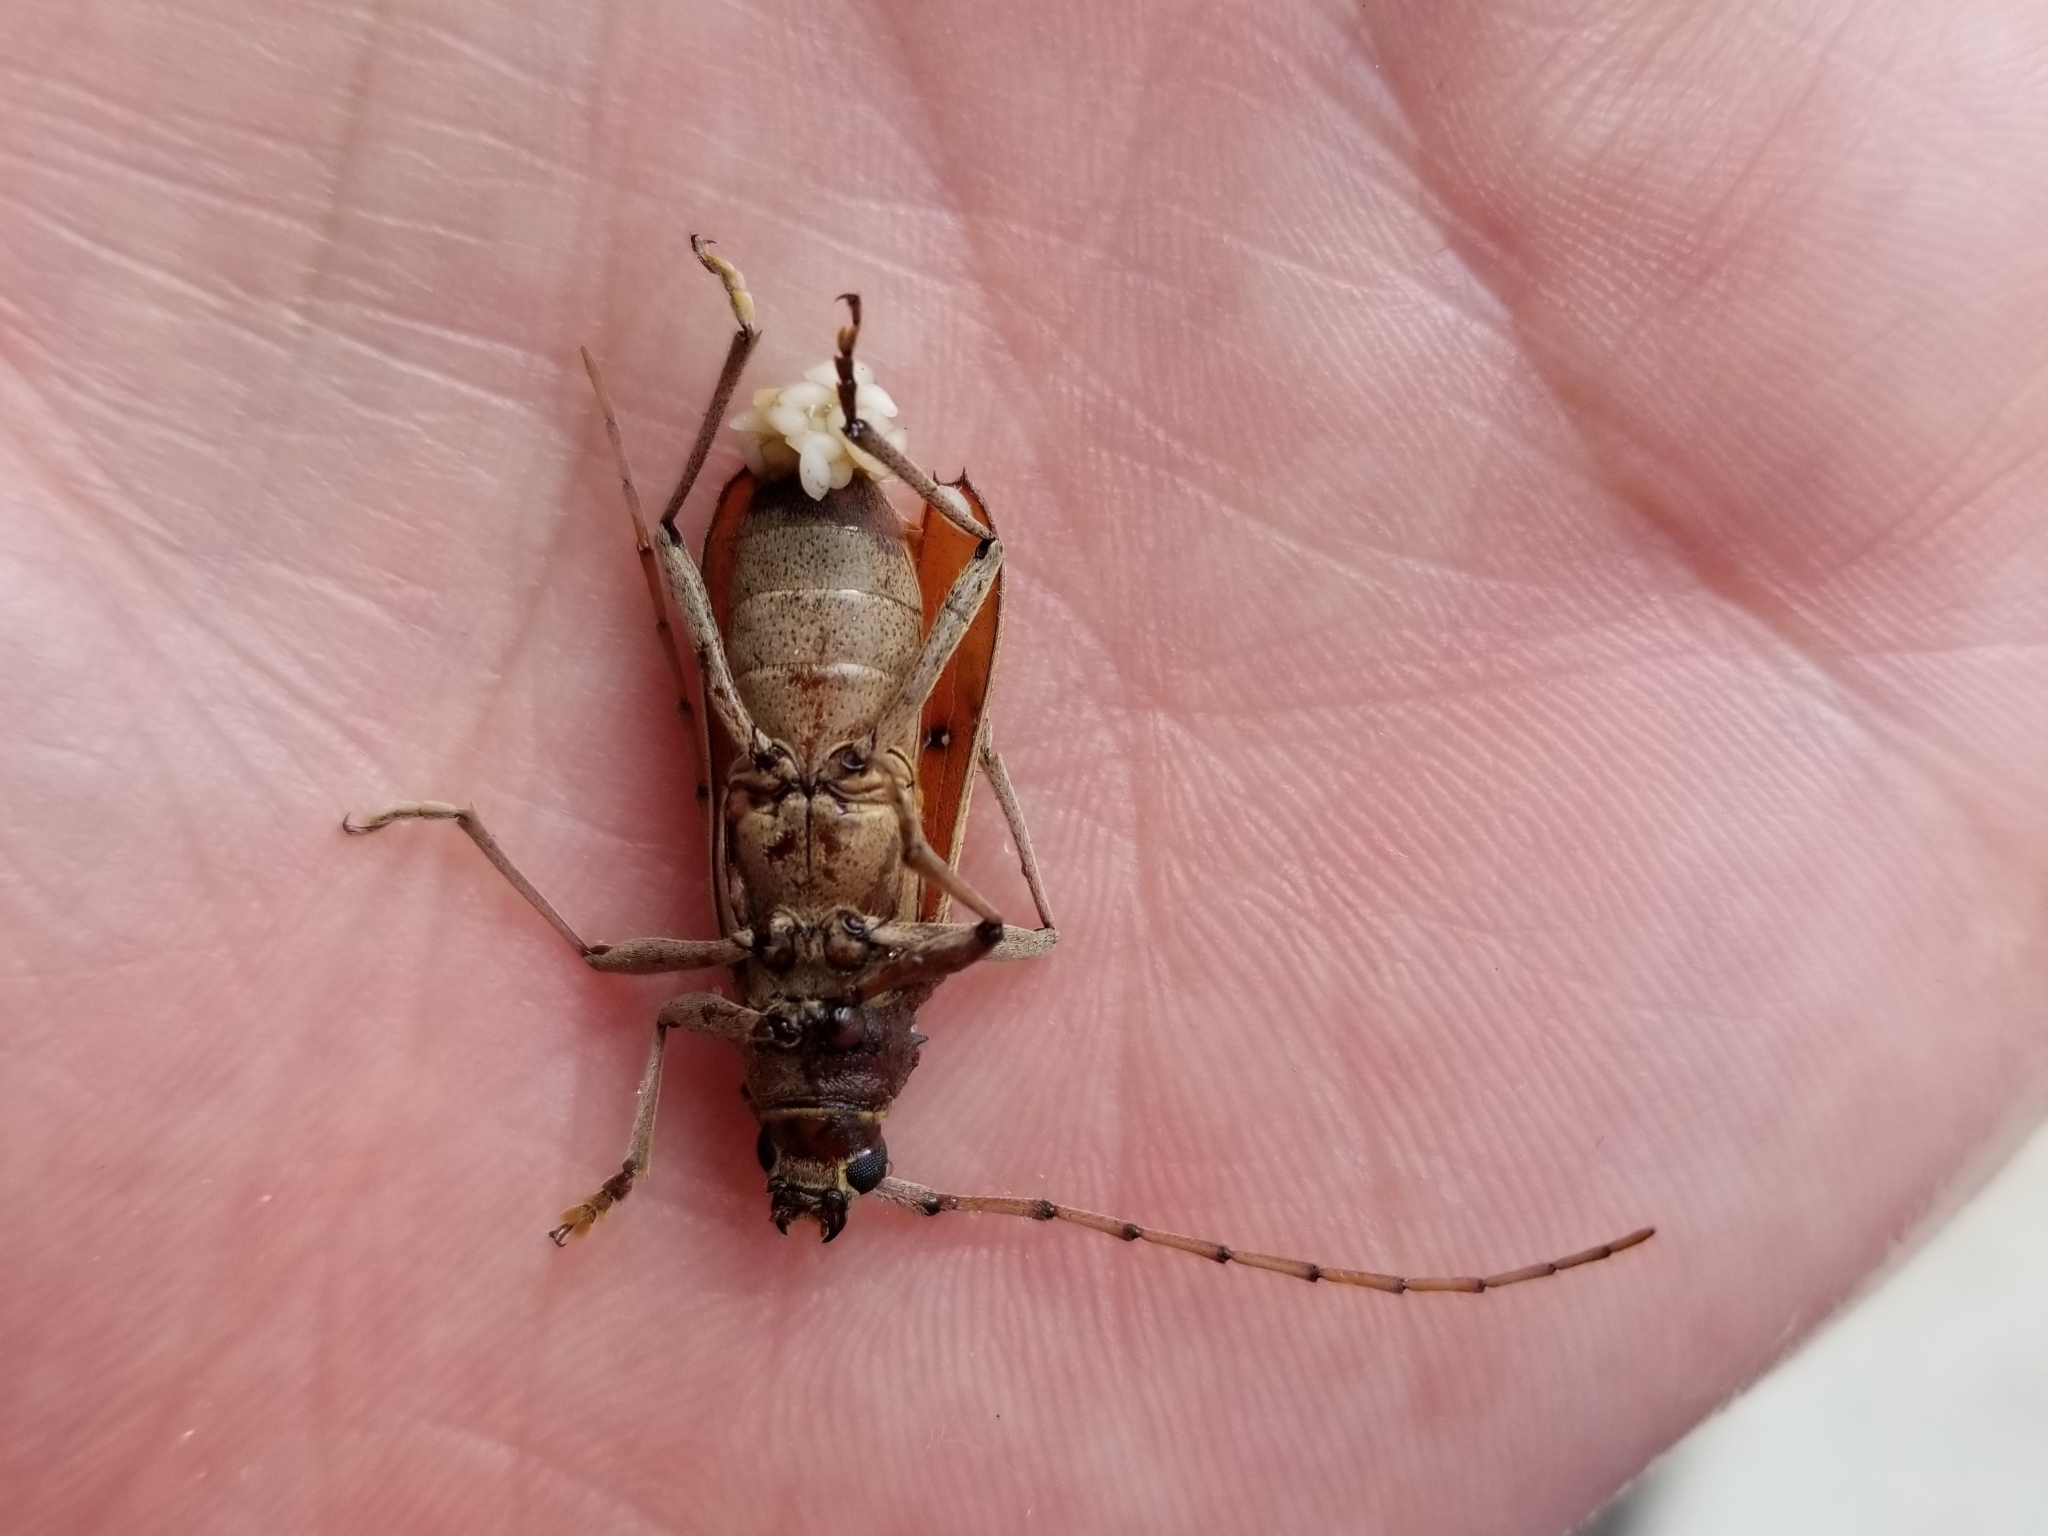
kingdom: Animalia
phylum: Arthropoda
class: Insecta
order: Coleoptera
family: Cerambycidae
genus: Eburia
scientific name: Eburia porulosa
